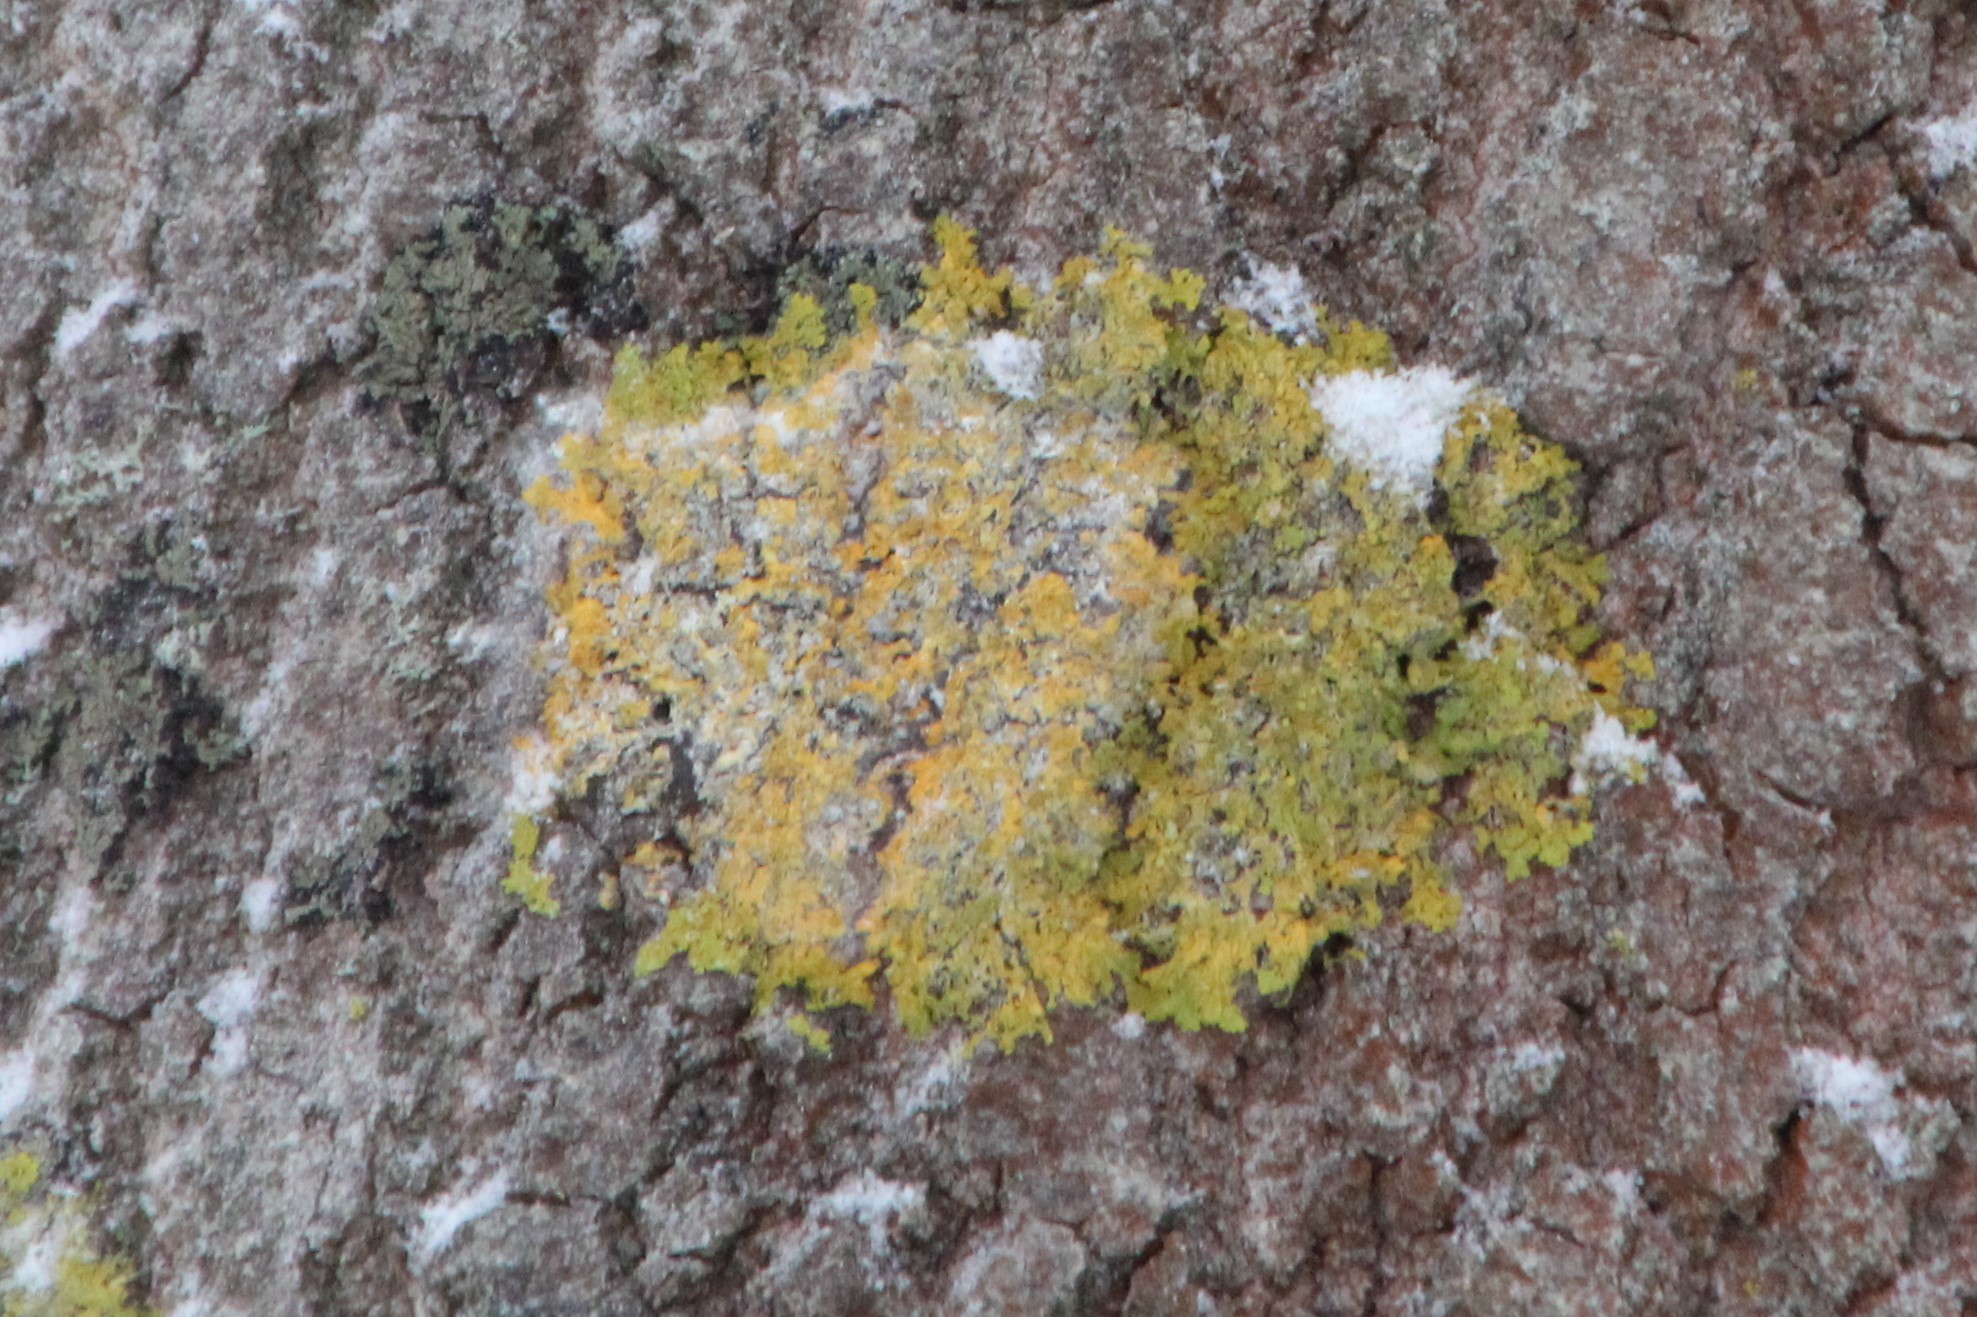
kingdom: Fungi
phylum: Ascomycota
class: Lecanoromycetes
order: Teloschistales
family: Teloschistaceae
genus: Xanthoria
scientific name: Xanthoria parietina
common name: Common orange lichen
